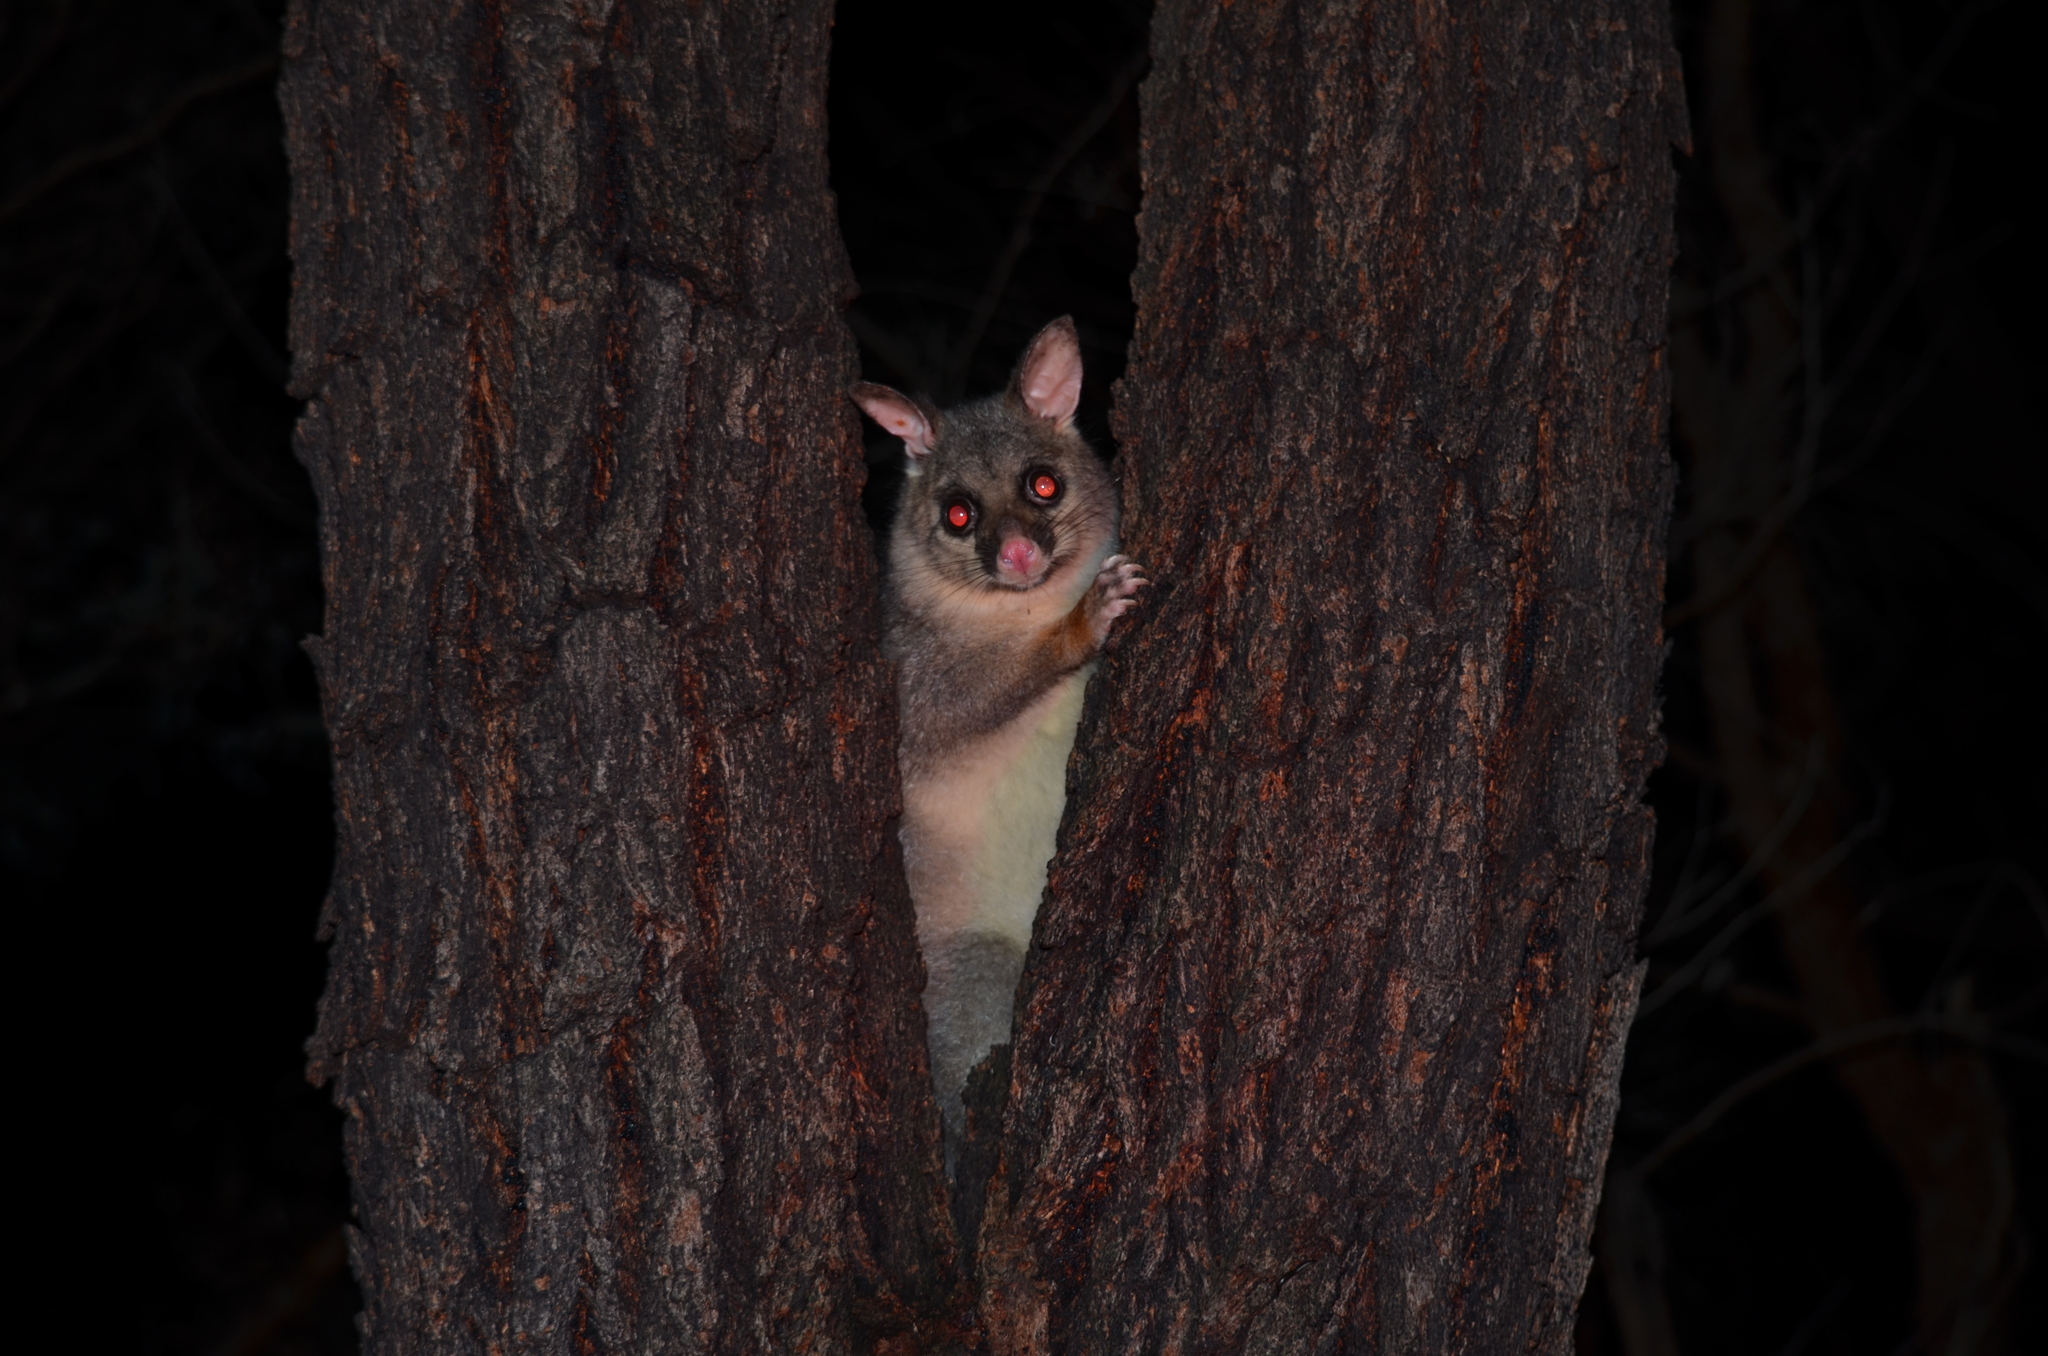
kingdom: Animalia
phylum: Chordata
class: Mammalia
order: Diprotodontia
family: Phalangeridae
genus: Trichosurus
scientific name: Trichosurus vulpecula
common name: Common brushtail
